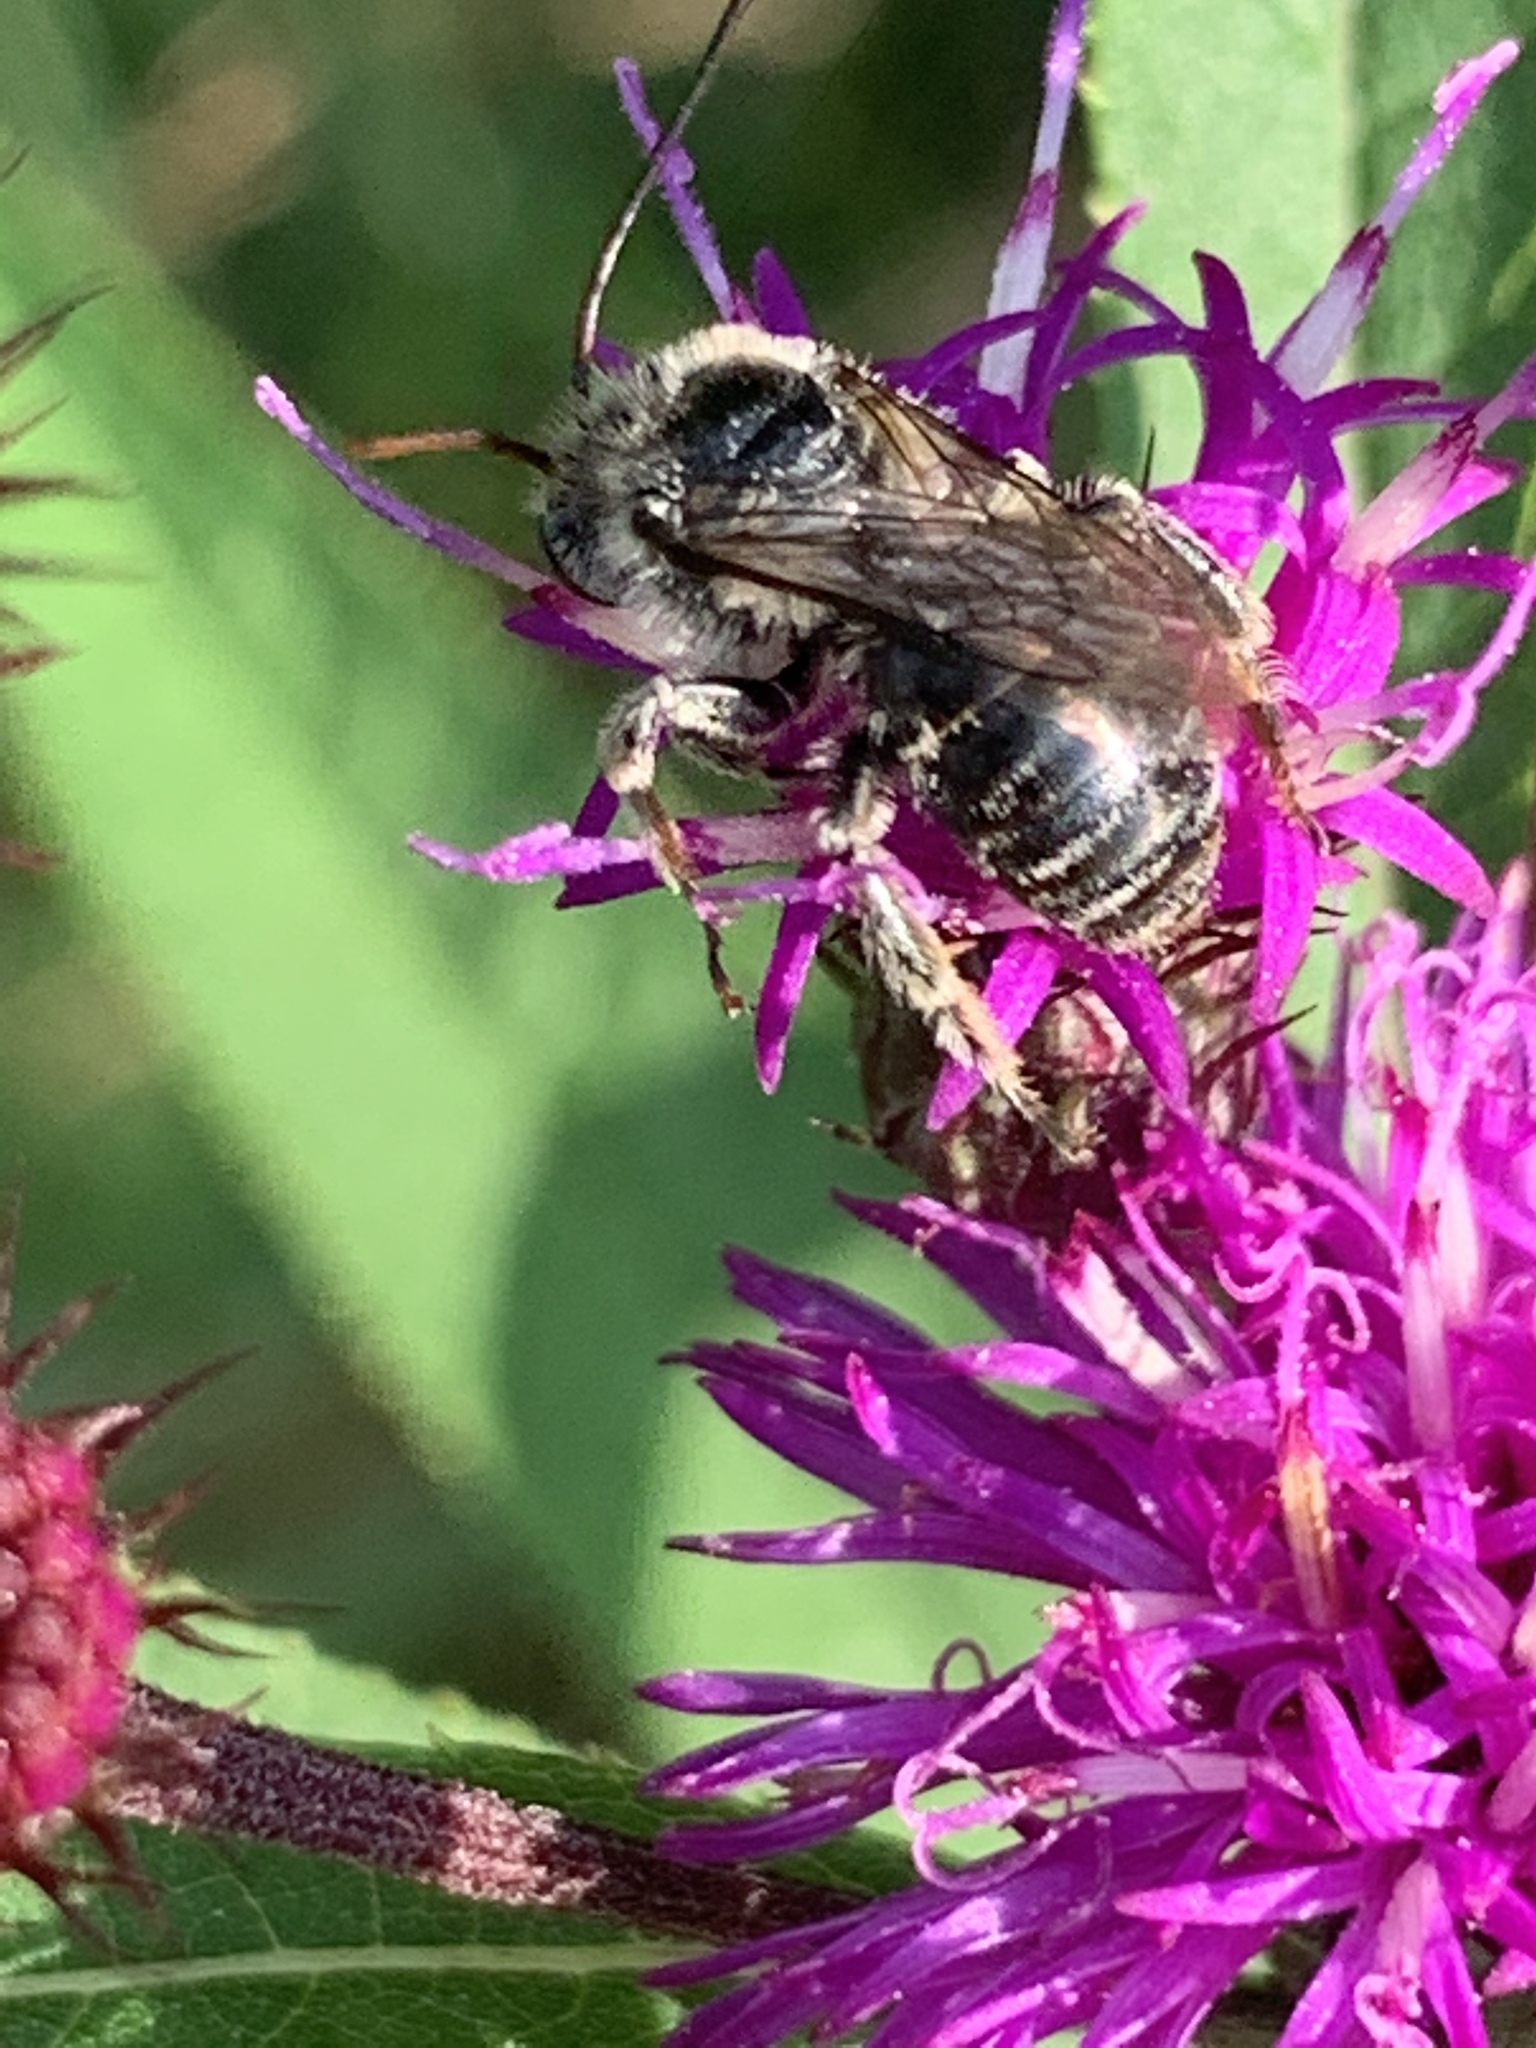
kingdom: Animalia
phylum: Arthropoda
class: Insecta
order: Hymenoptera
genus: Eumelissodes
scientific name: Eumelissodes
